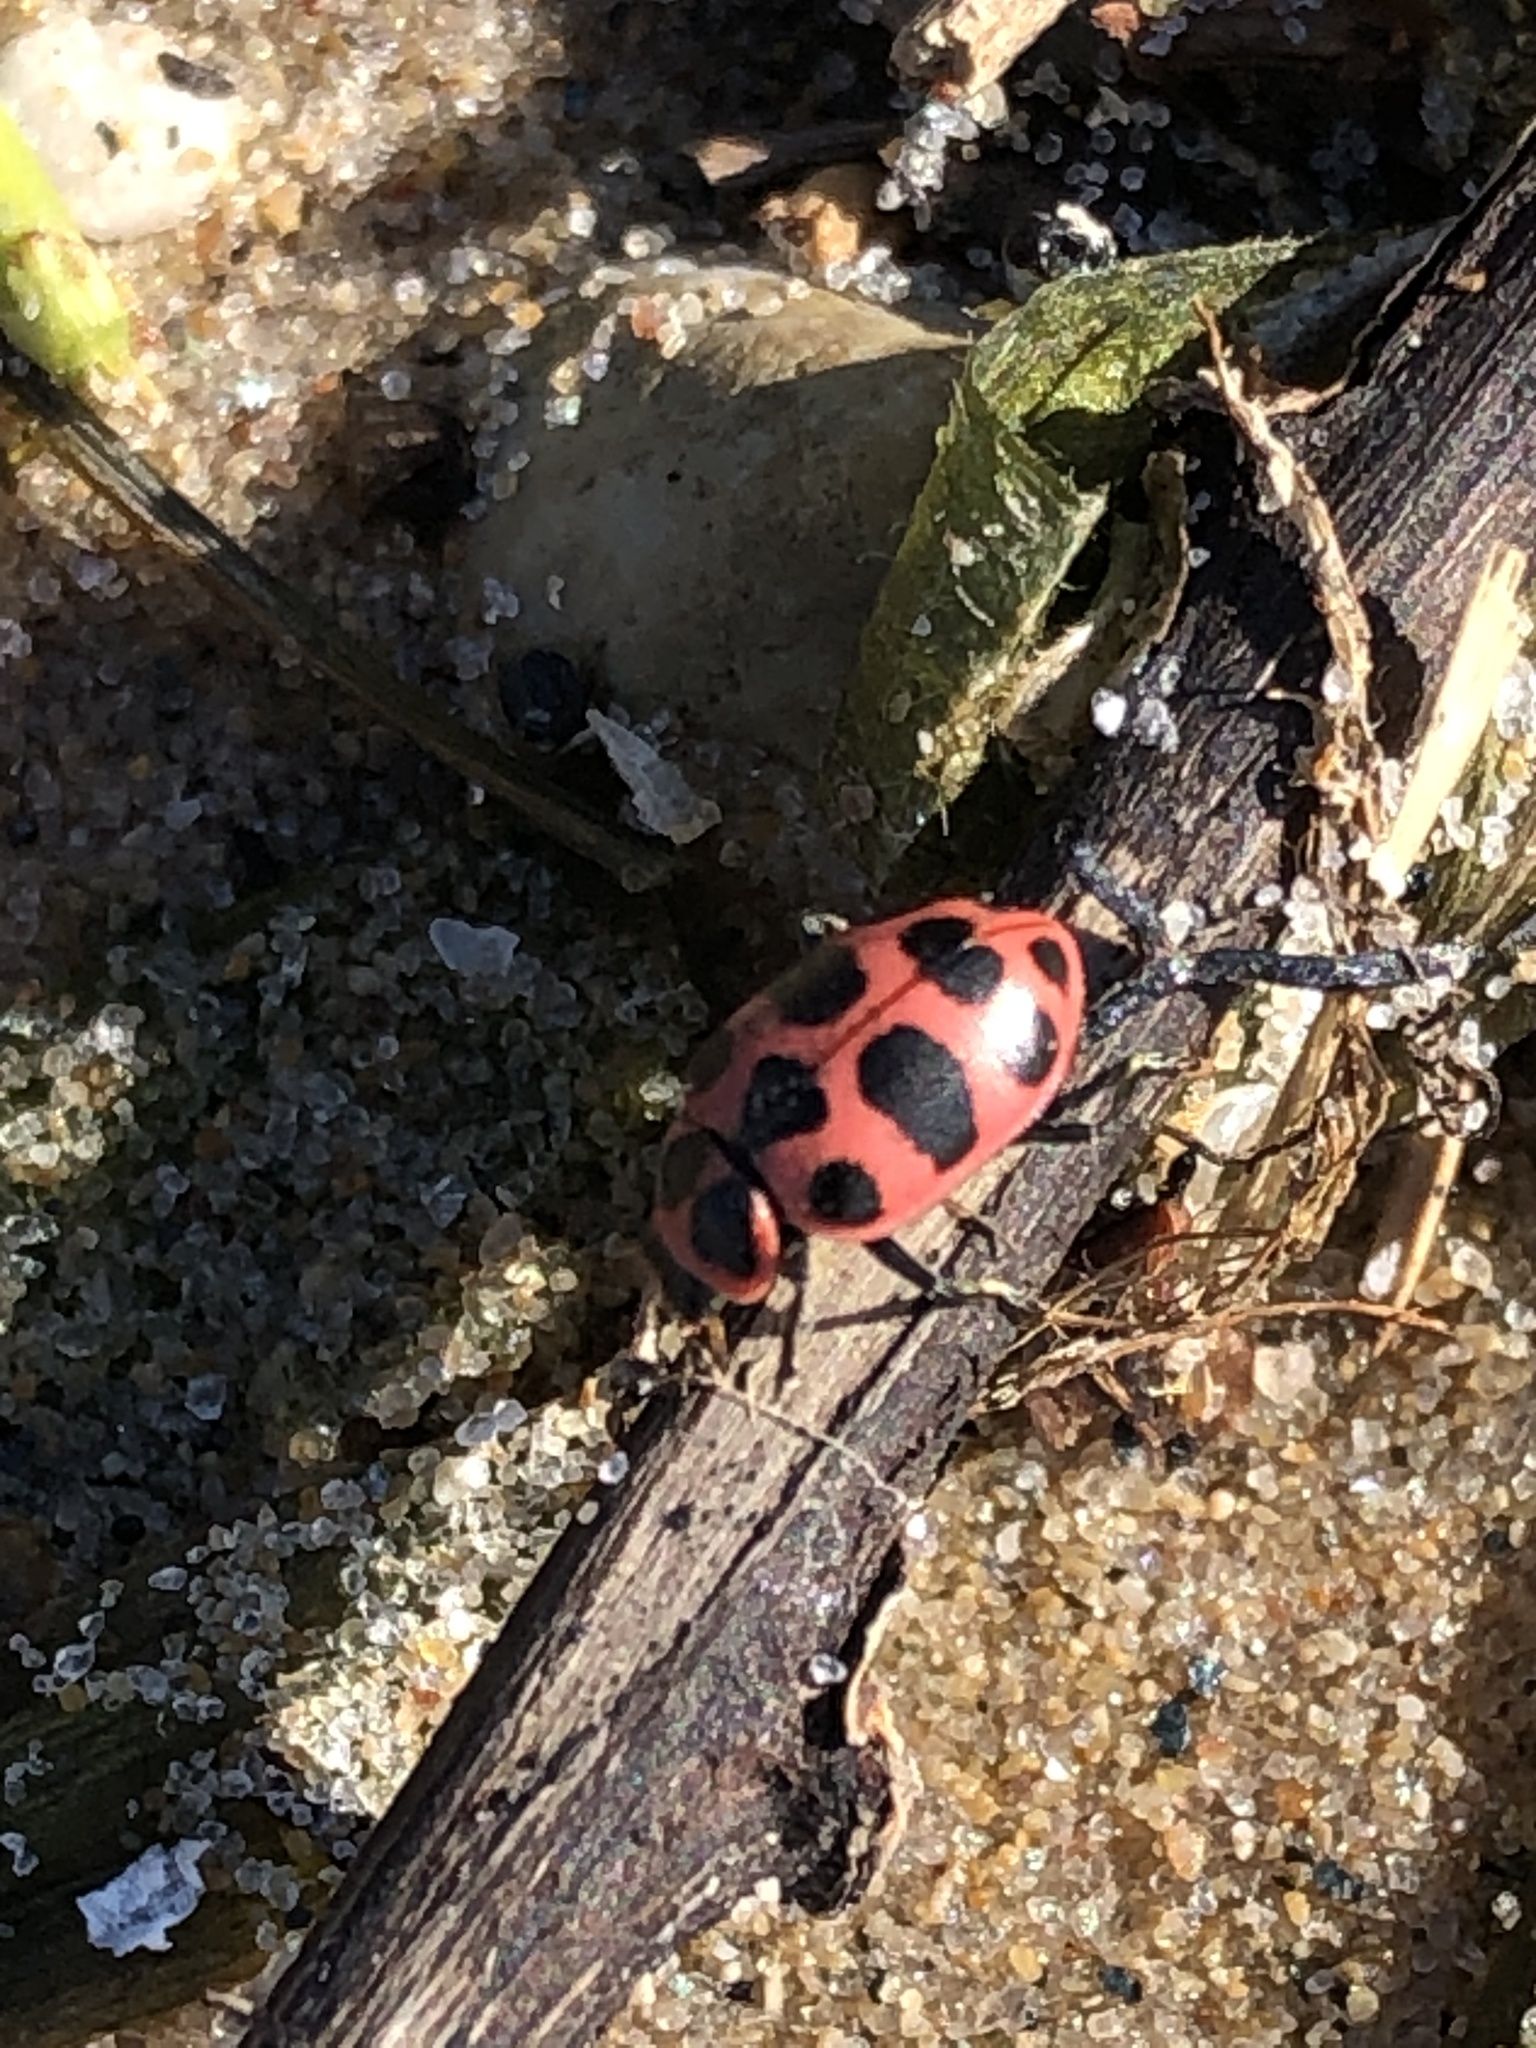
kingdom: Animalia
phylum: Arthropoda
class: Insecta
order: Coleoptera
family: Coccinellidae
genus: Coleomegilla
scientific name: Coleomegilla maculata
